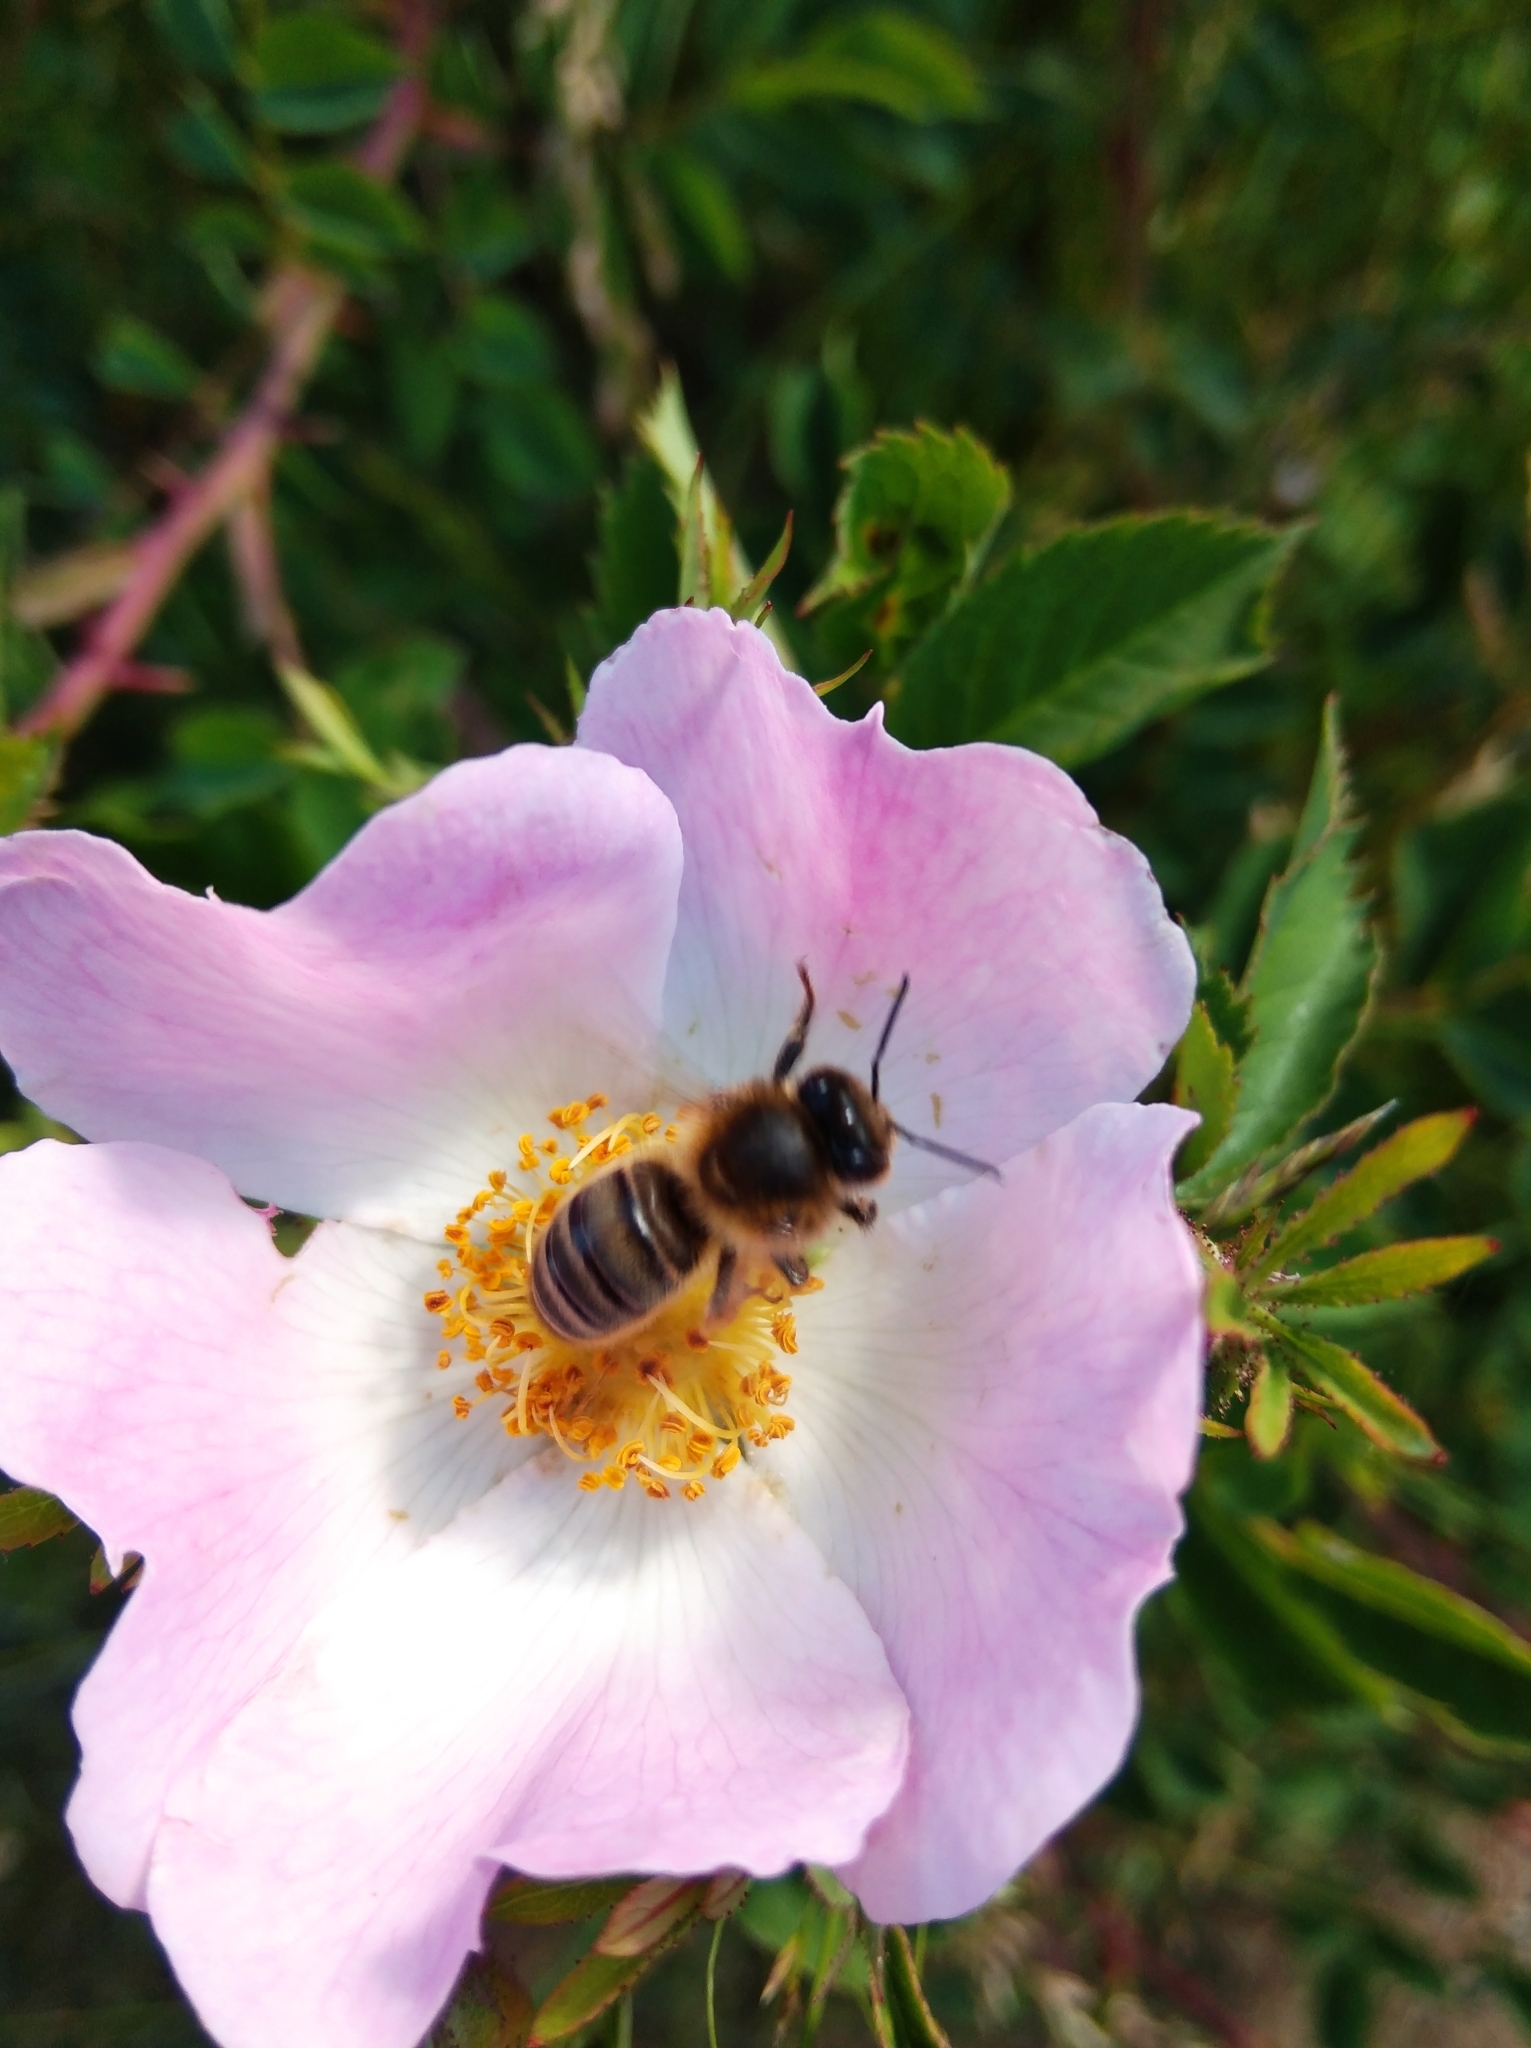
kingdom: Animalia
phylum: Arthropoda
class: Insecta
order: Hymenoptera
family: Apidae
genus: Apis
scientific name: Apis mellifera
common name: Honey bee
